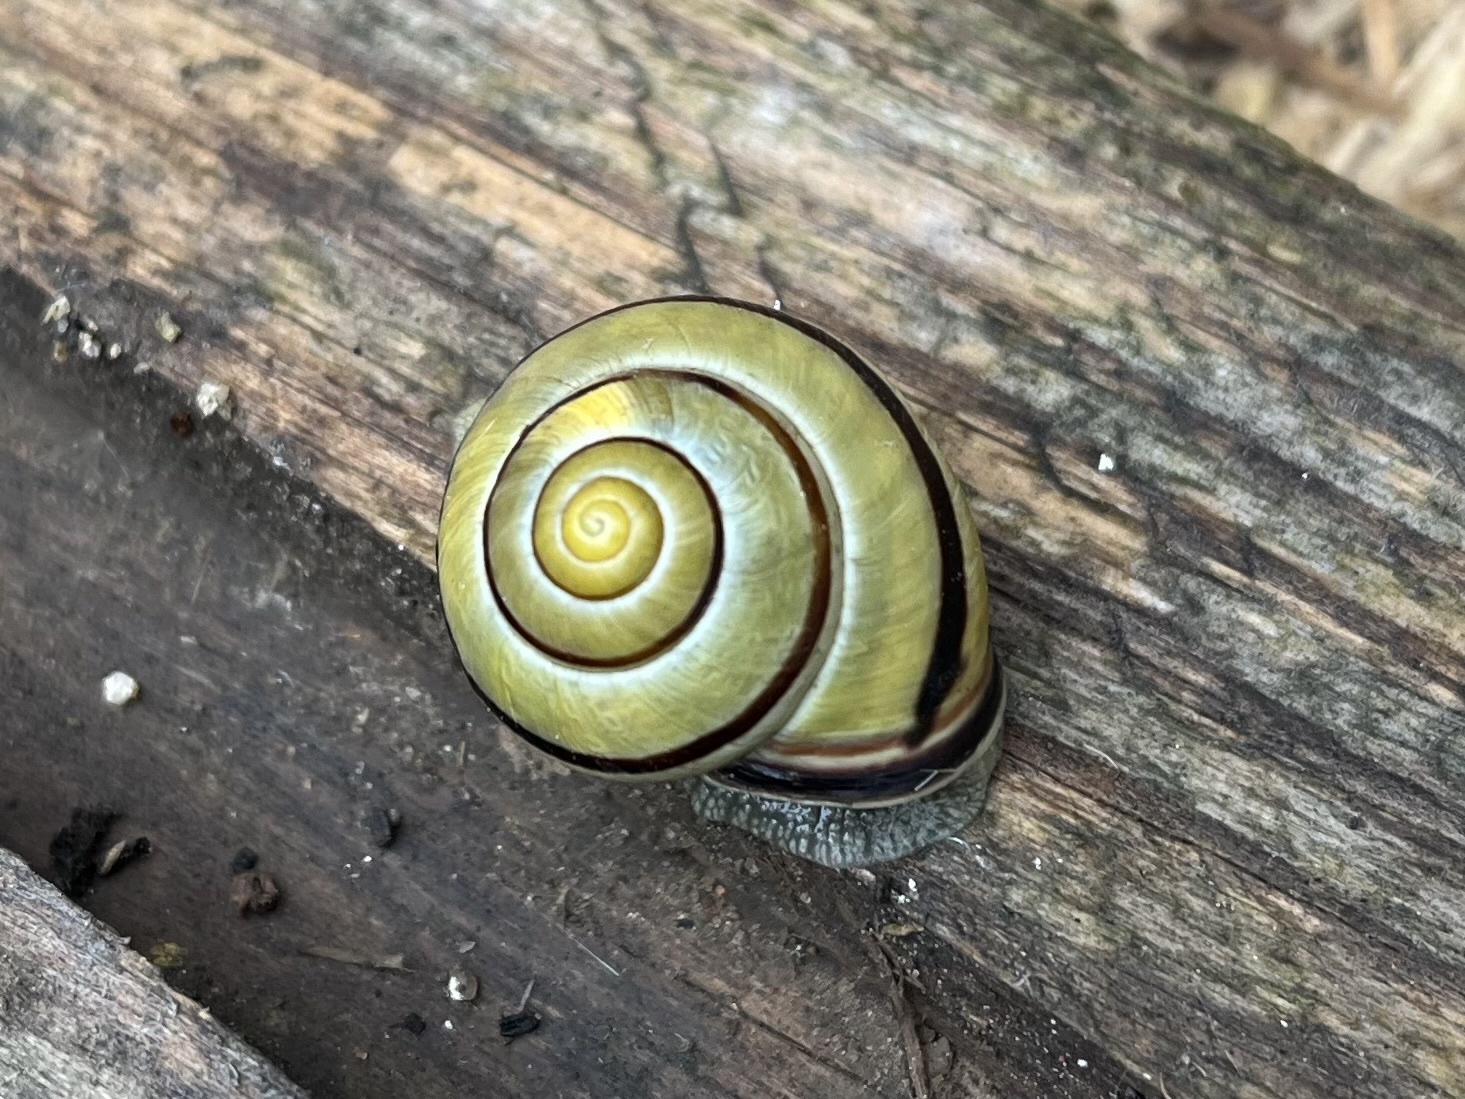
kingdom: Animalia
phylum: Mollusca
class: Gastropoda
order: Stylommatophora
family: Helicidae
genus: Cepaea
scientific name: Cepaea nemoralis
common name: Grovesnail
